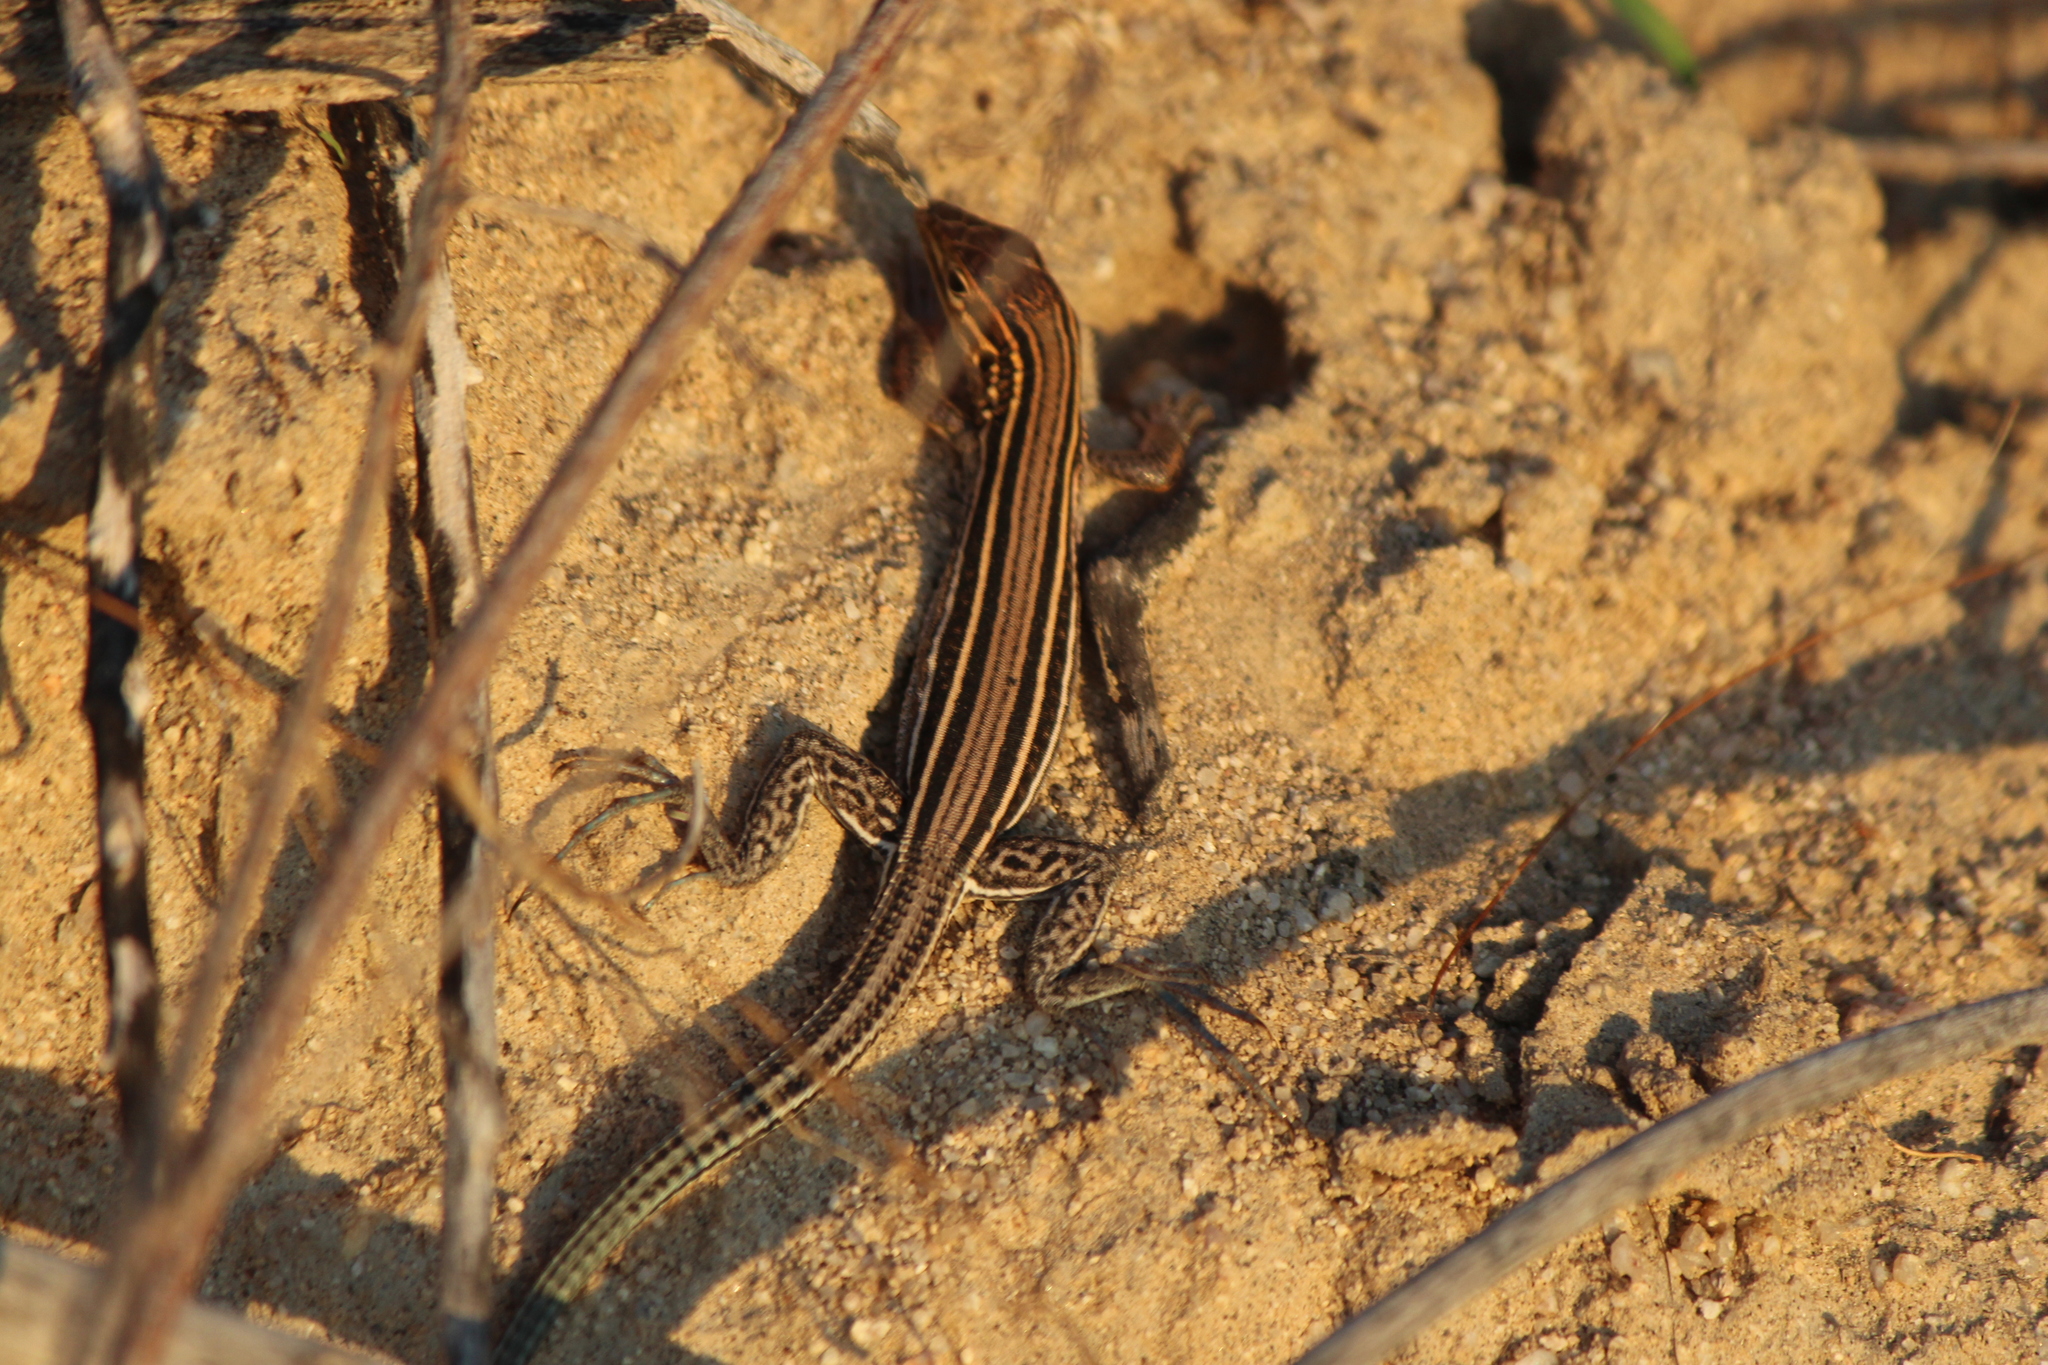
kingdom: Animalia
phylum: Chordata
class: Squamata
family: Teiidae
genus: Aspidoscelis
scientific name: Aspidoscelis hyperythrus
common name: Orange-throated race-runner
